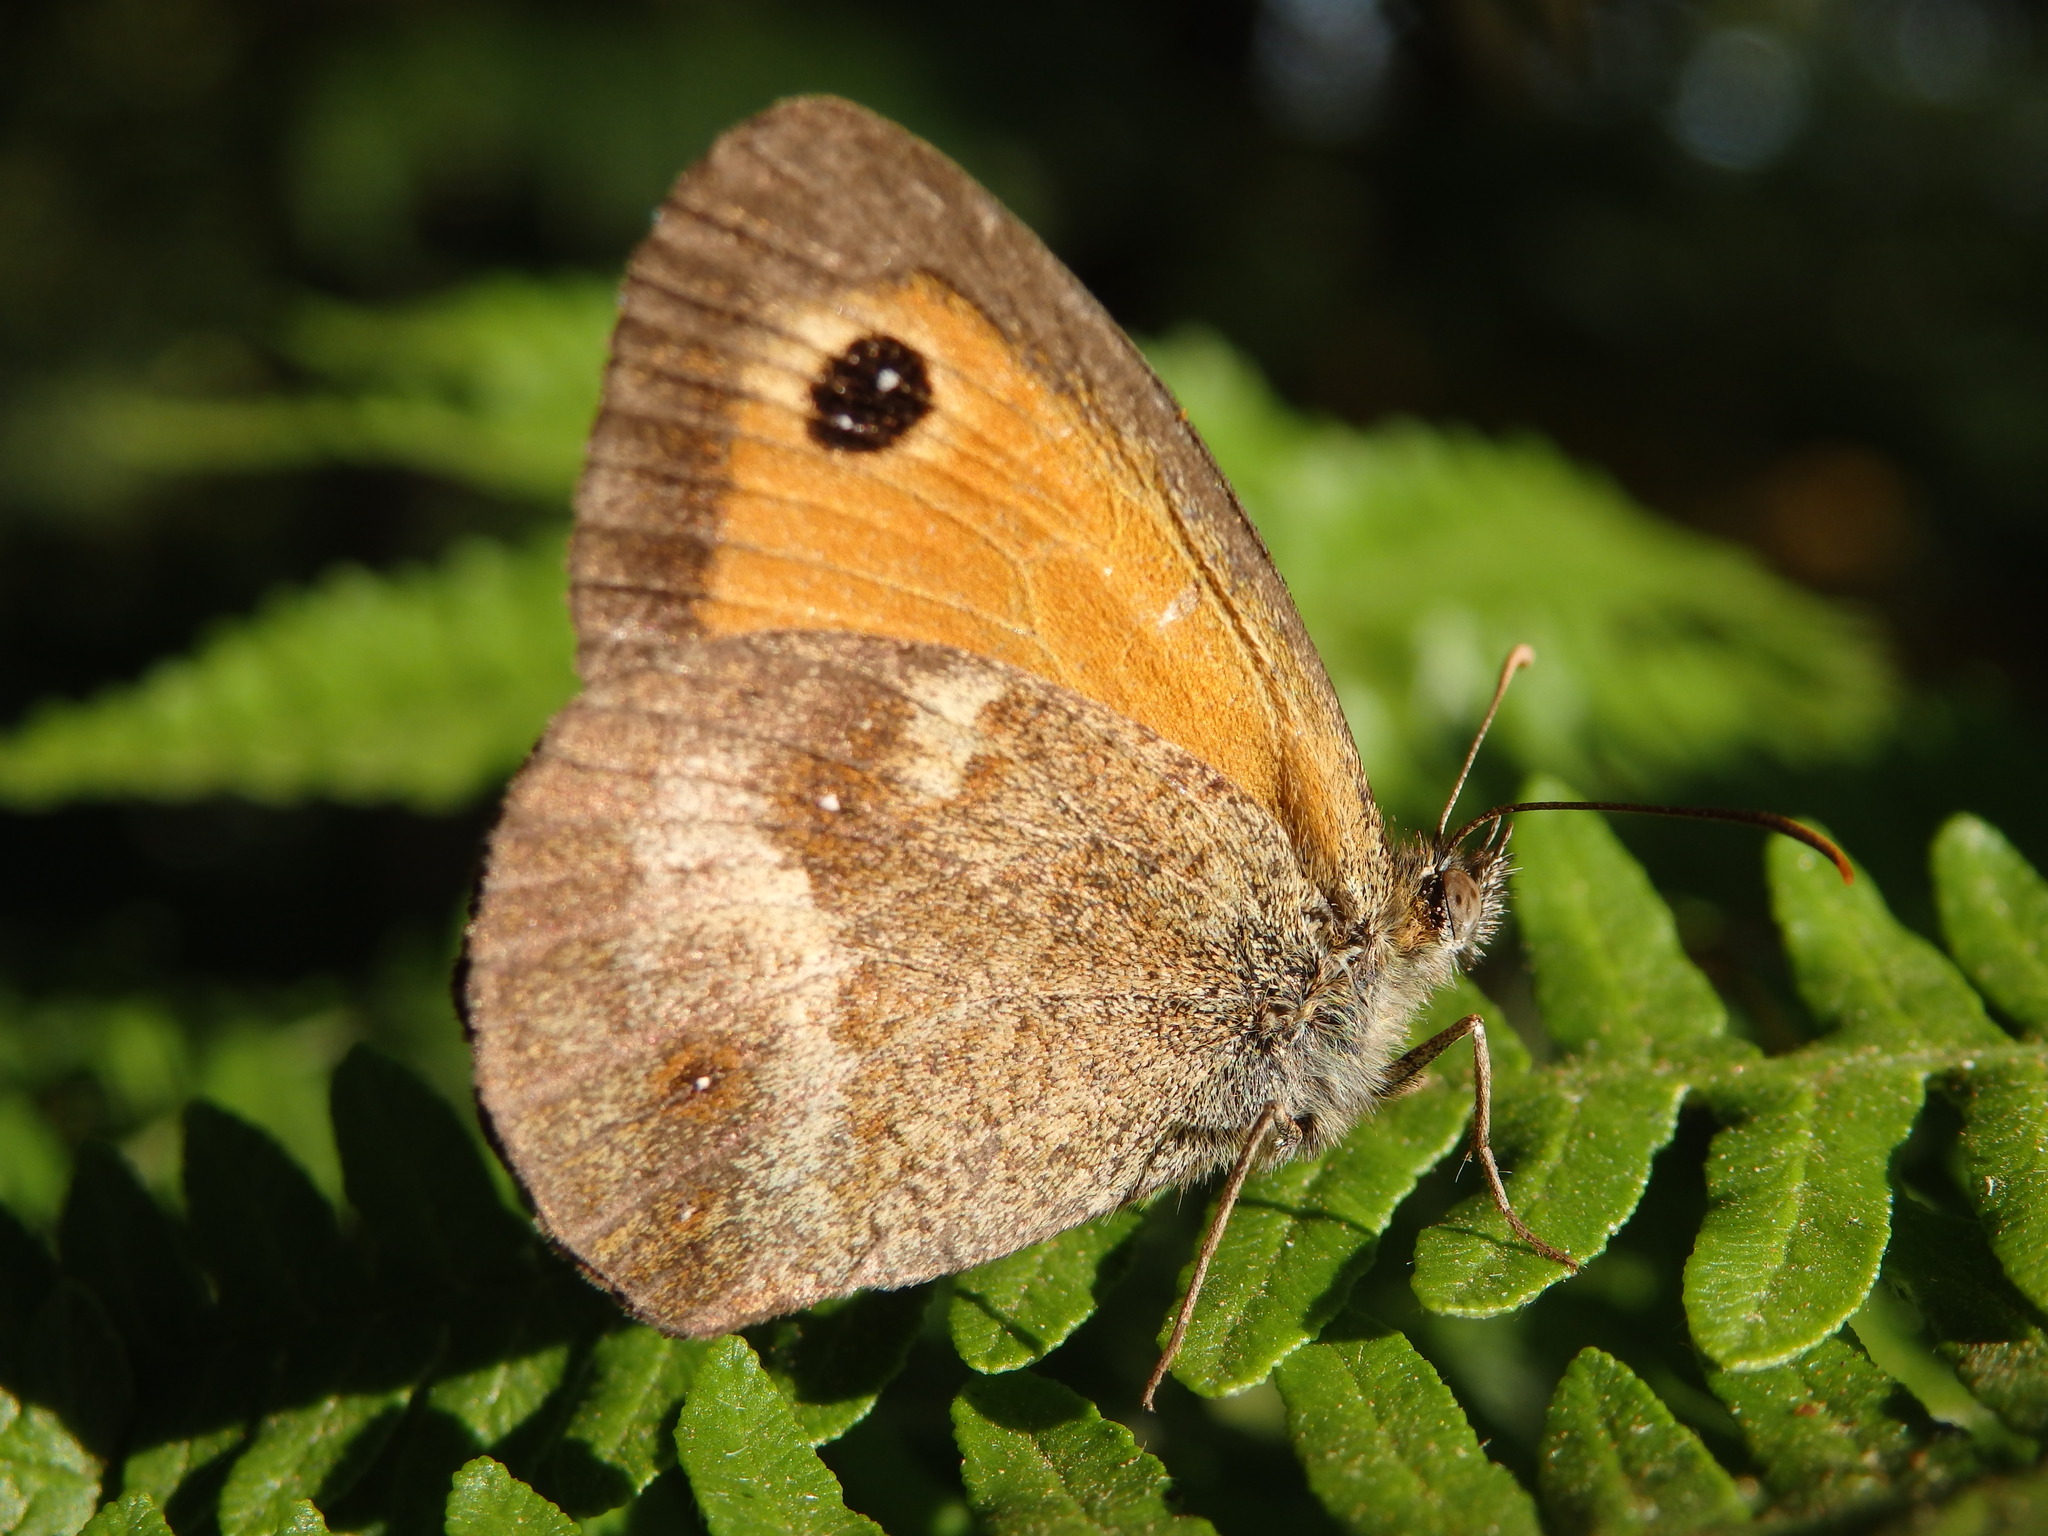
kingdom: Animalia
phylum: Arthropoda
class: Insecta
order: Lepidoptera
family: Nymphalidae
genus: Pyronia
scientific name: Pyronia tithonus
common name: Gatekeeper
